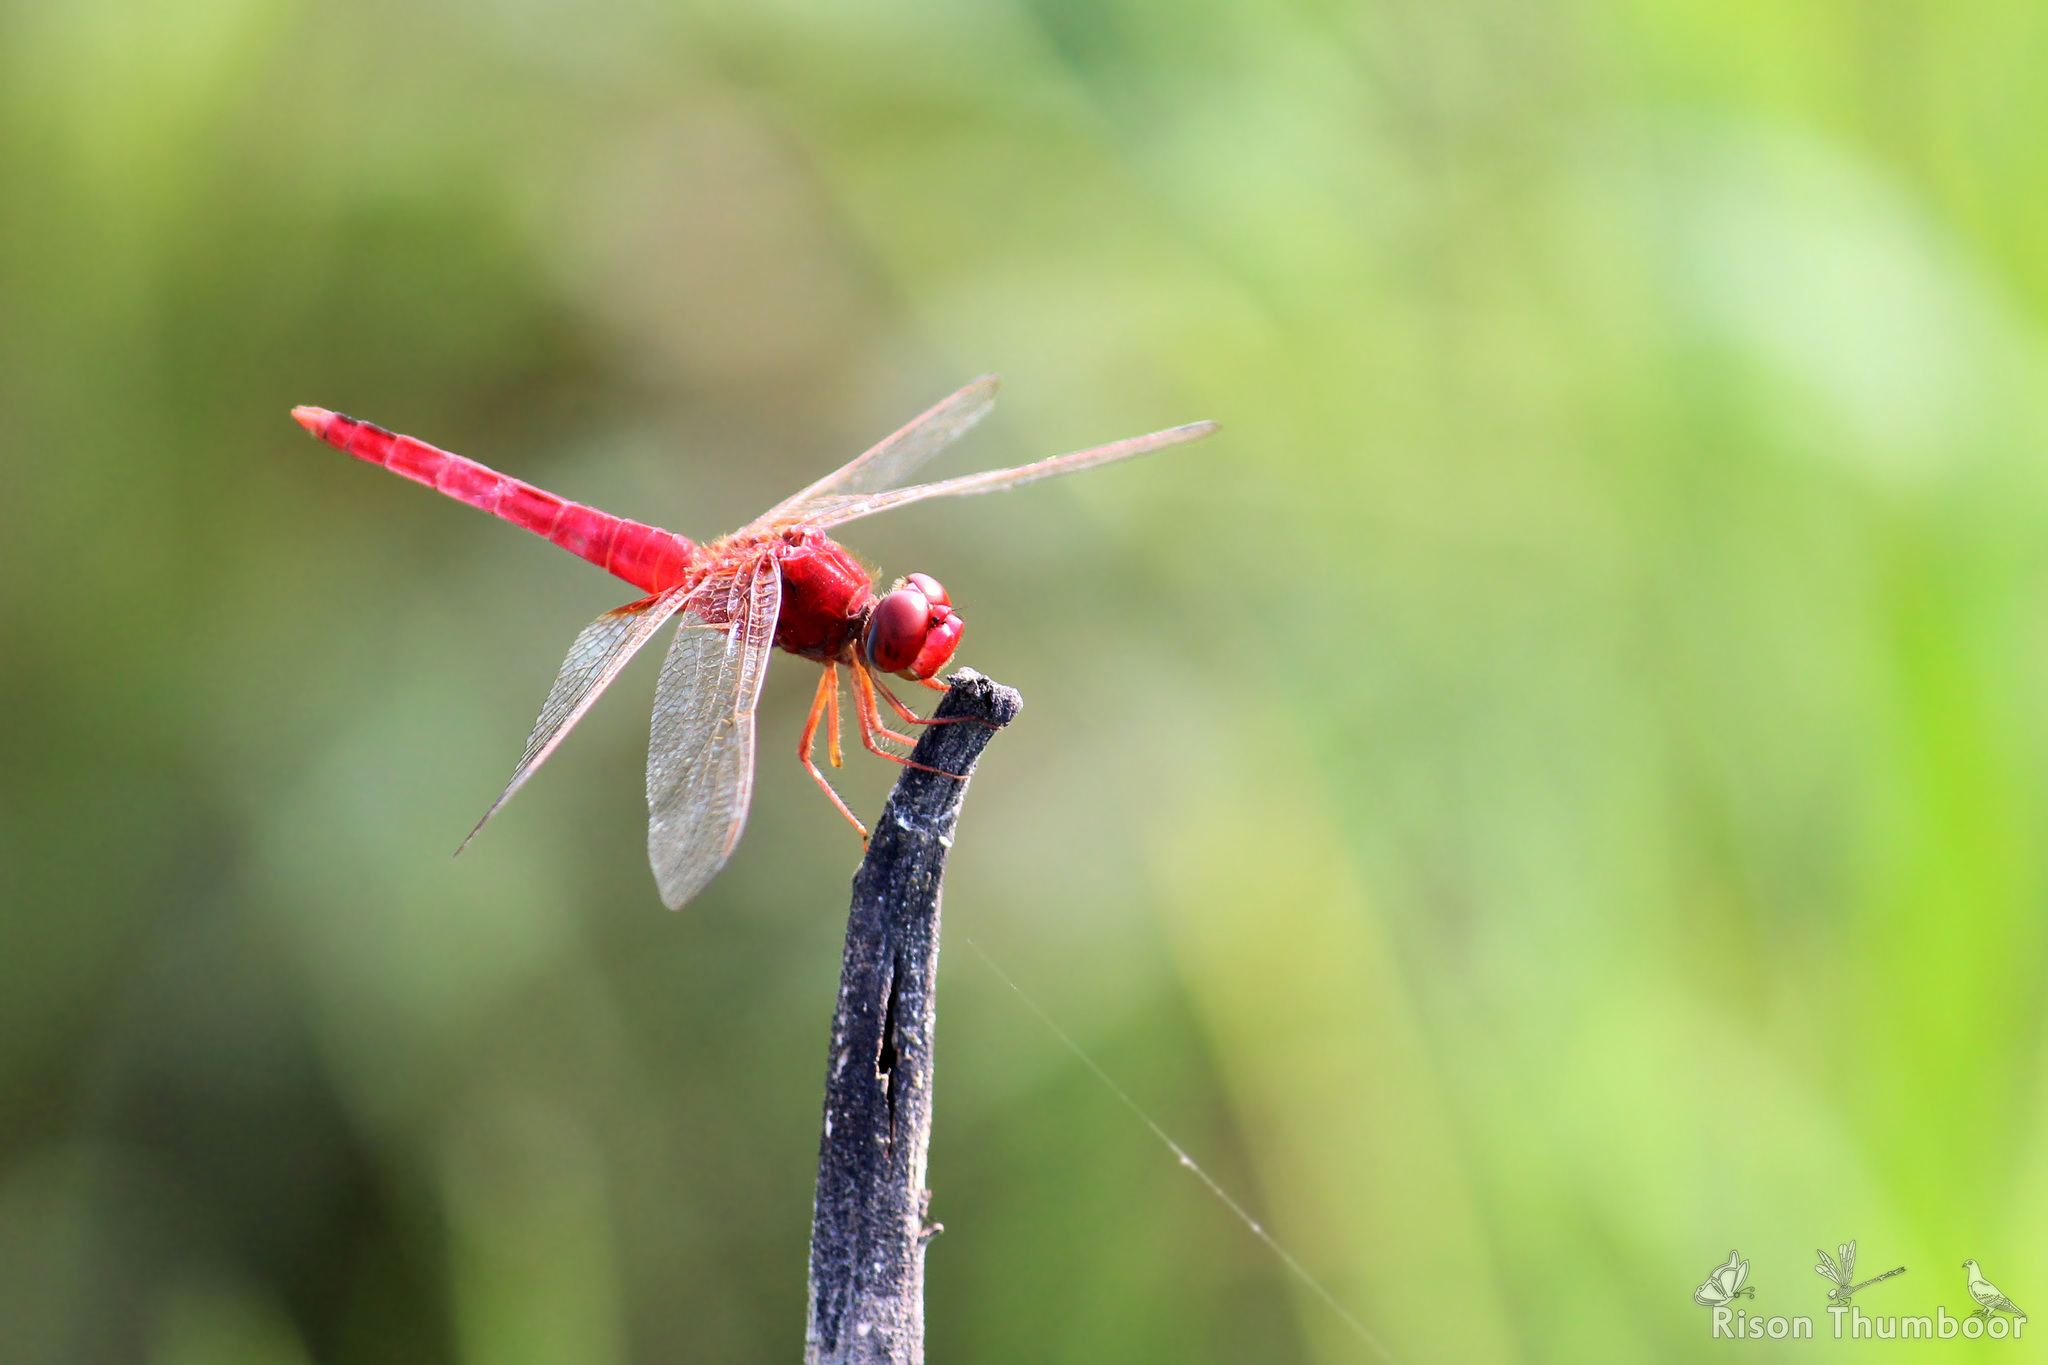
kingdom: Animalia
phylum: Arthropoda
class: Insecta
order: Odonata
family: Libellulidae
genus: Crocothemis
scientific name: Crocothemis servilia
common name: Scarlet skimmer
